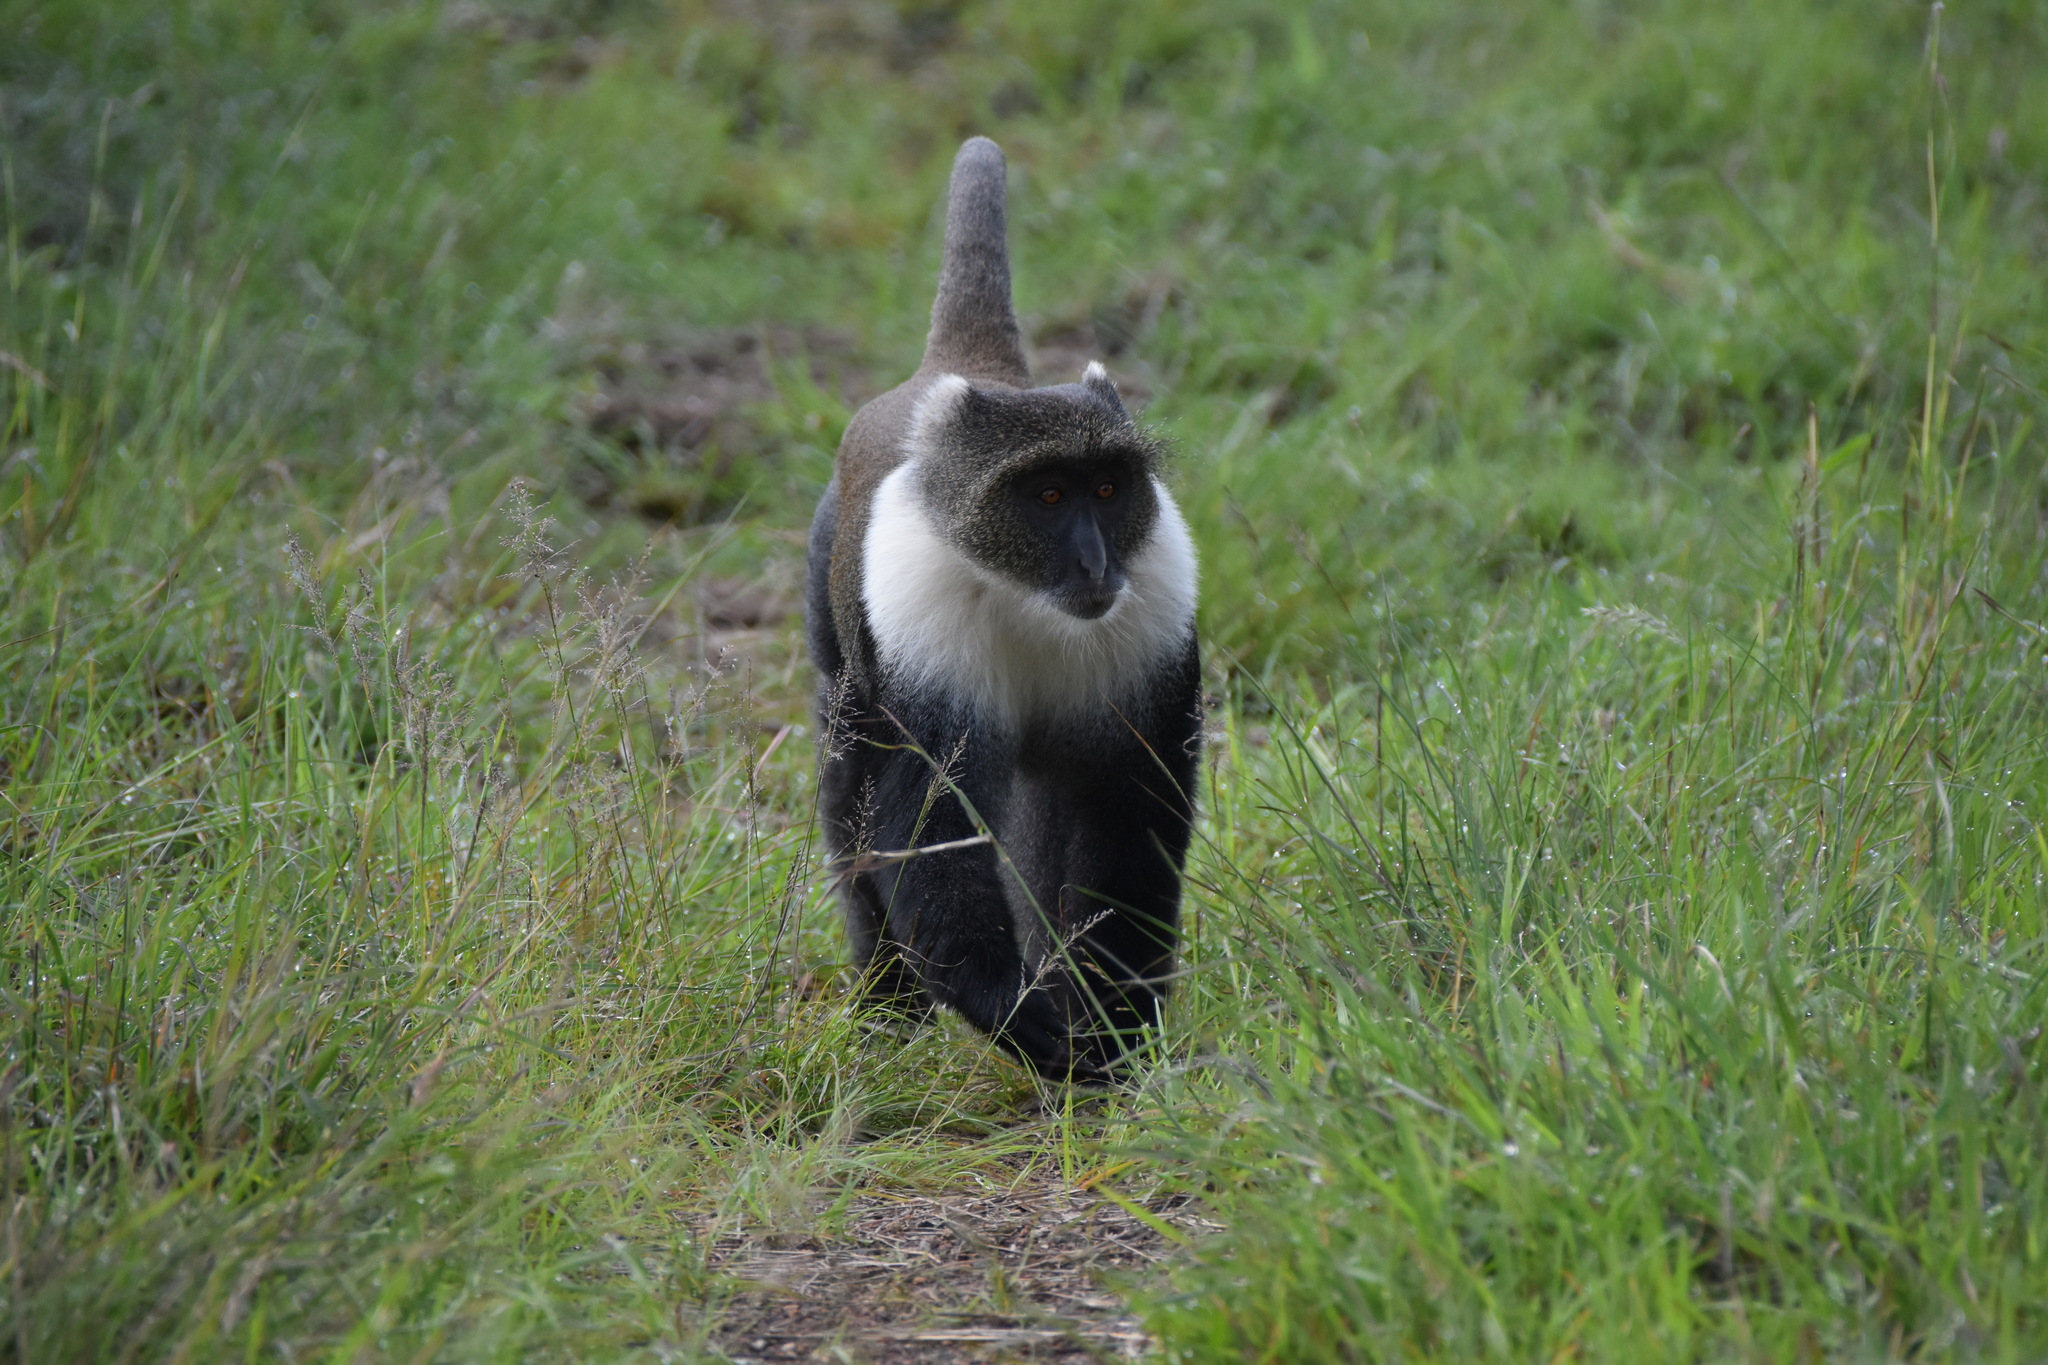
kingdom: Animalia
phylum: Chordata
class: Mammalia
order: Primates
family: Cercopithecidae
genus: Cercopithecus
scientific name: Cercopithecus mitis
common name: Blue monkey
